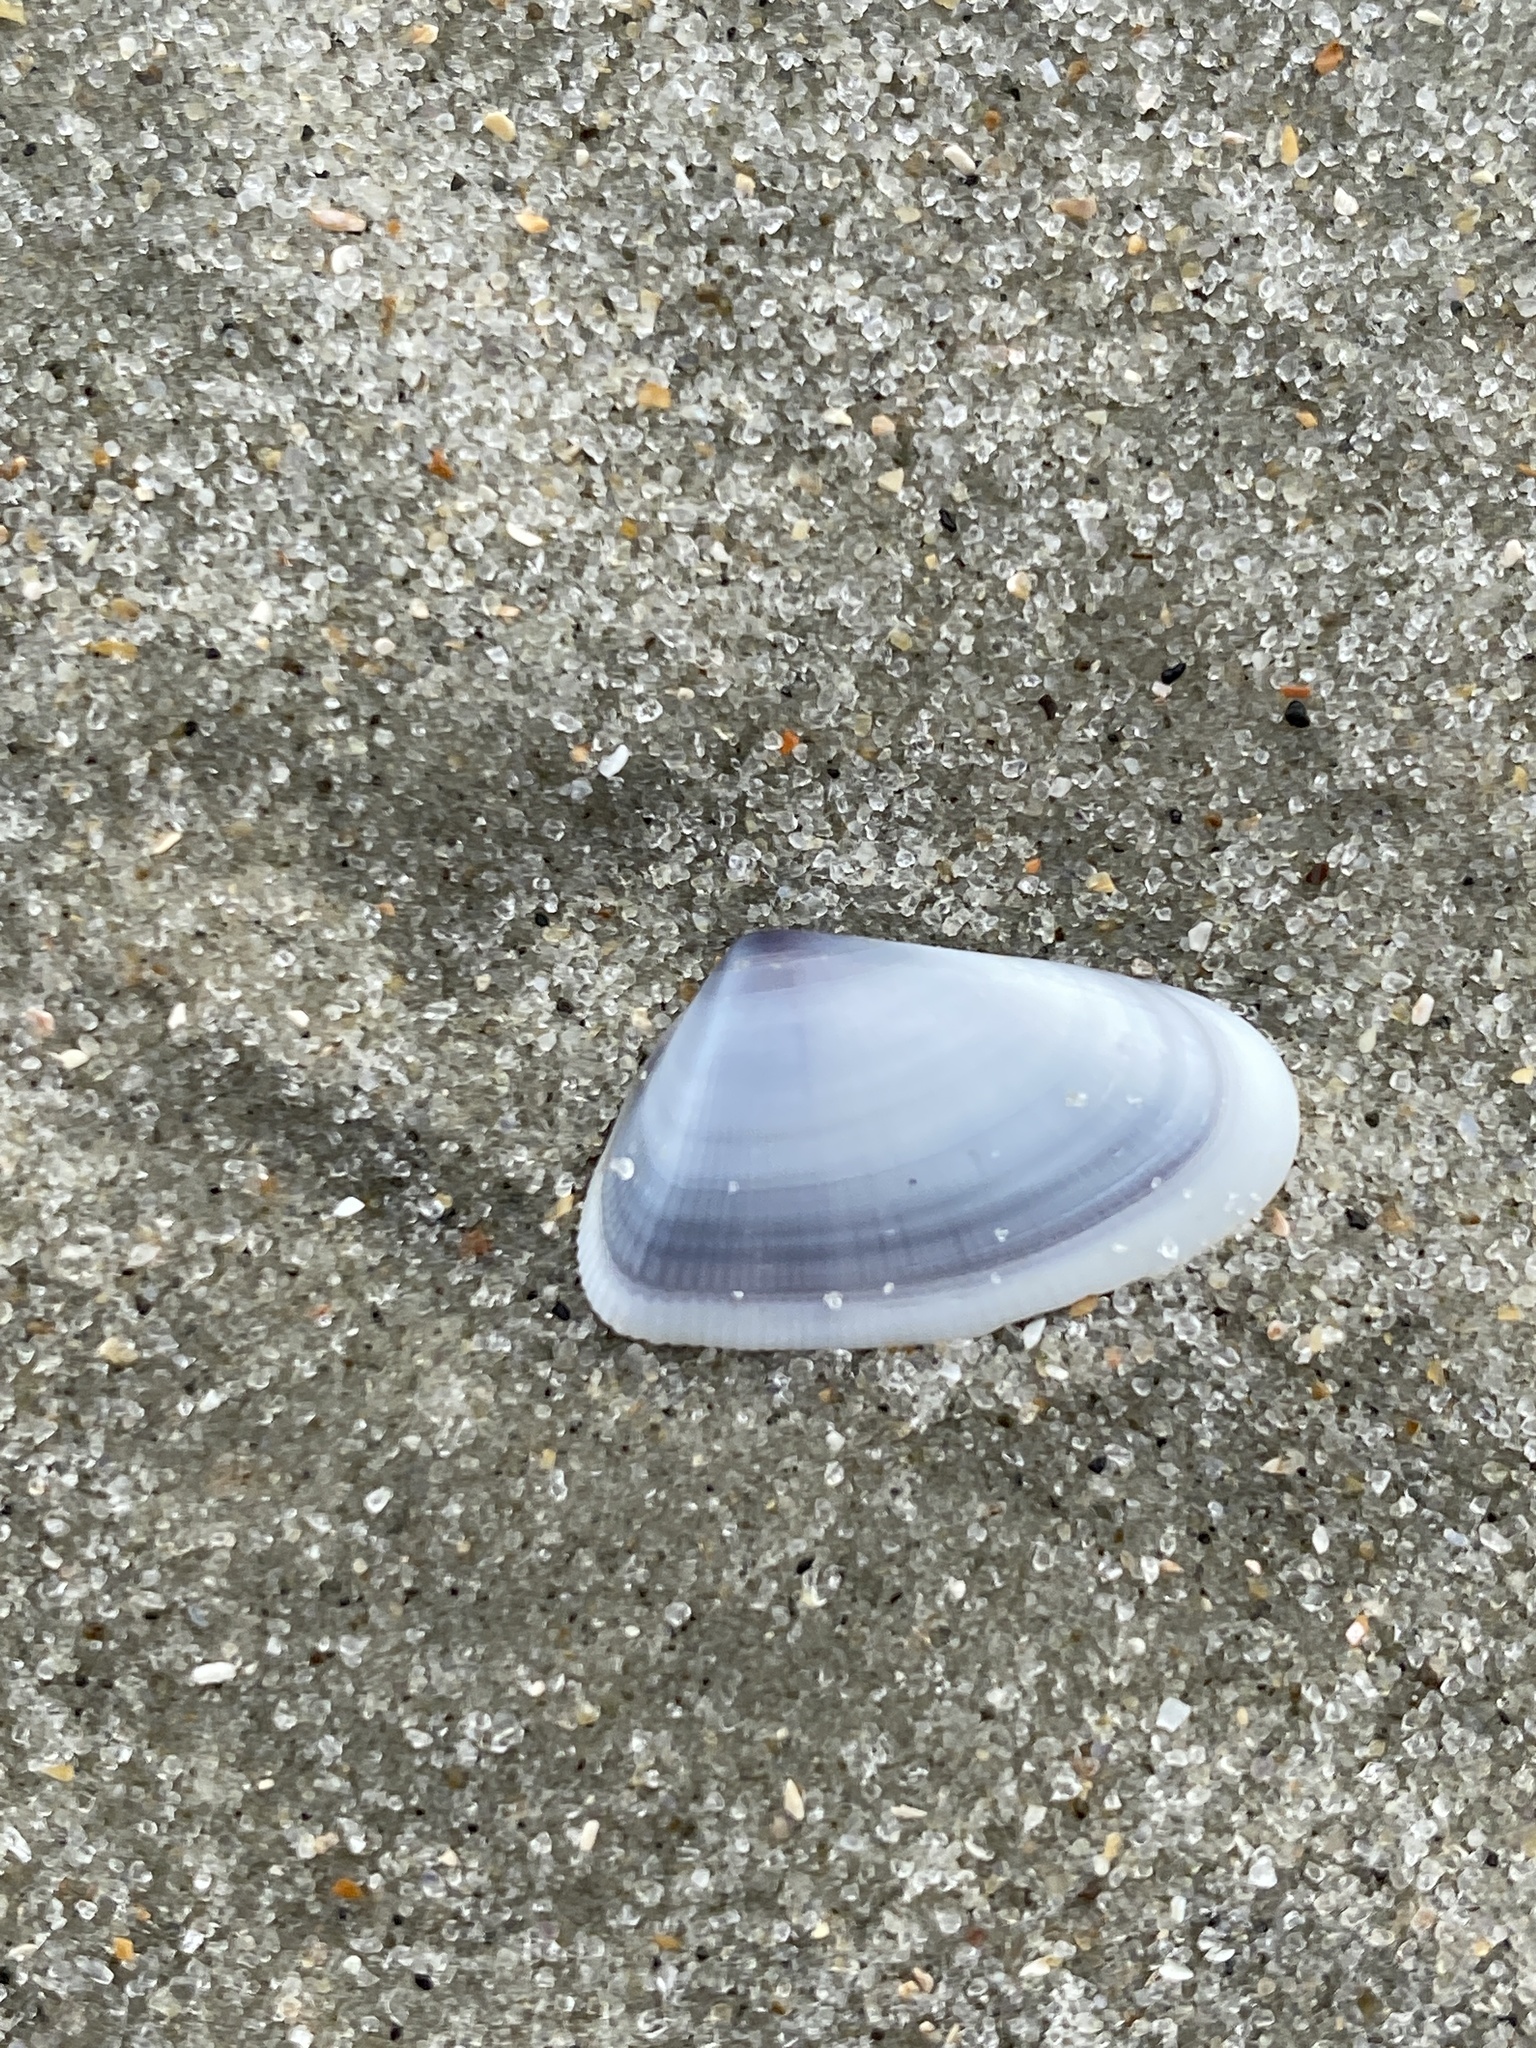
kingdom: Animalia
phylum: Mollusca
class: Bivalvia
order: Cardiida
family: Donacidae
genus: Donax
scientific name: Donax variabilis
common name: Butterfly shell
